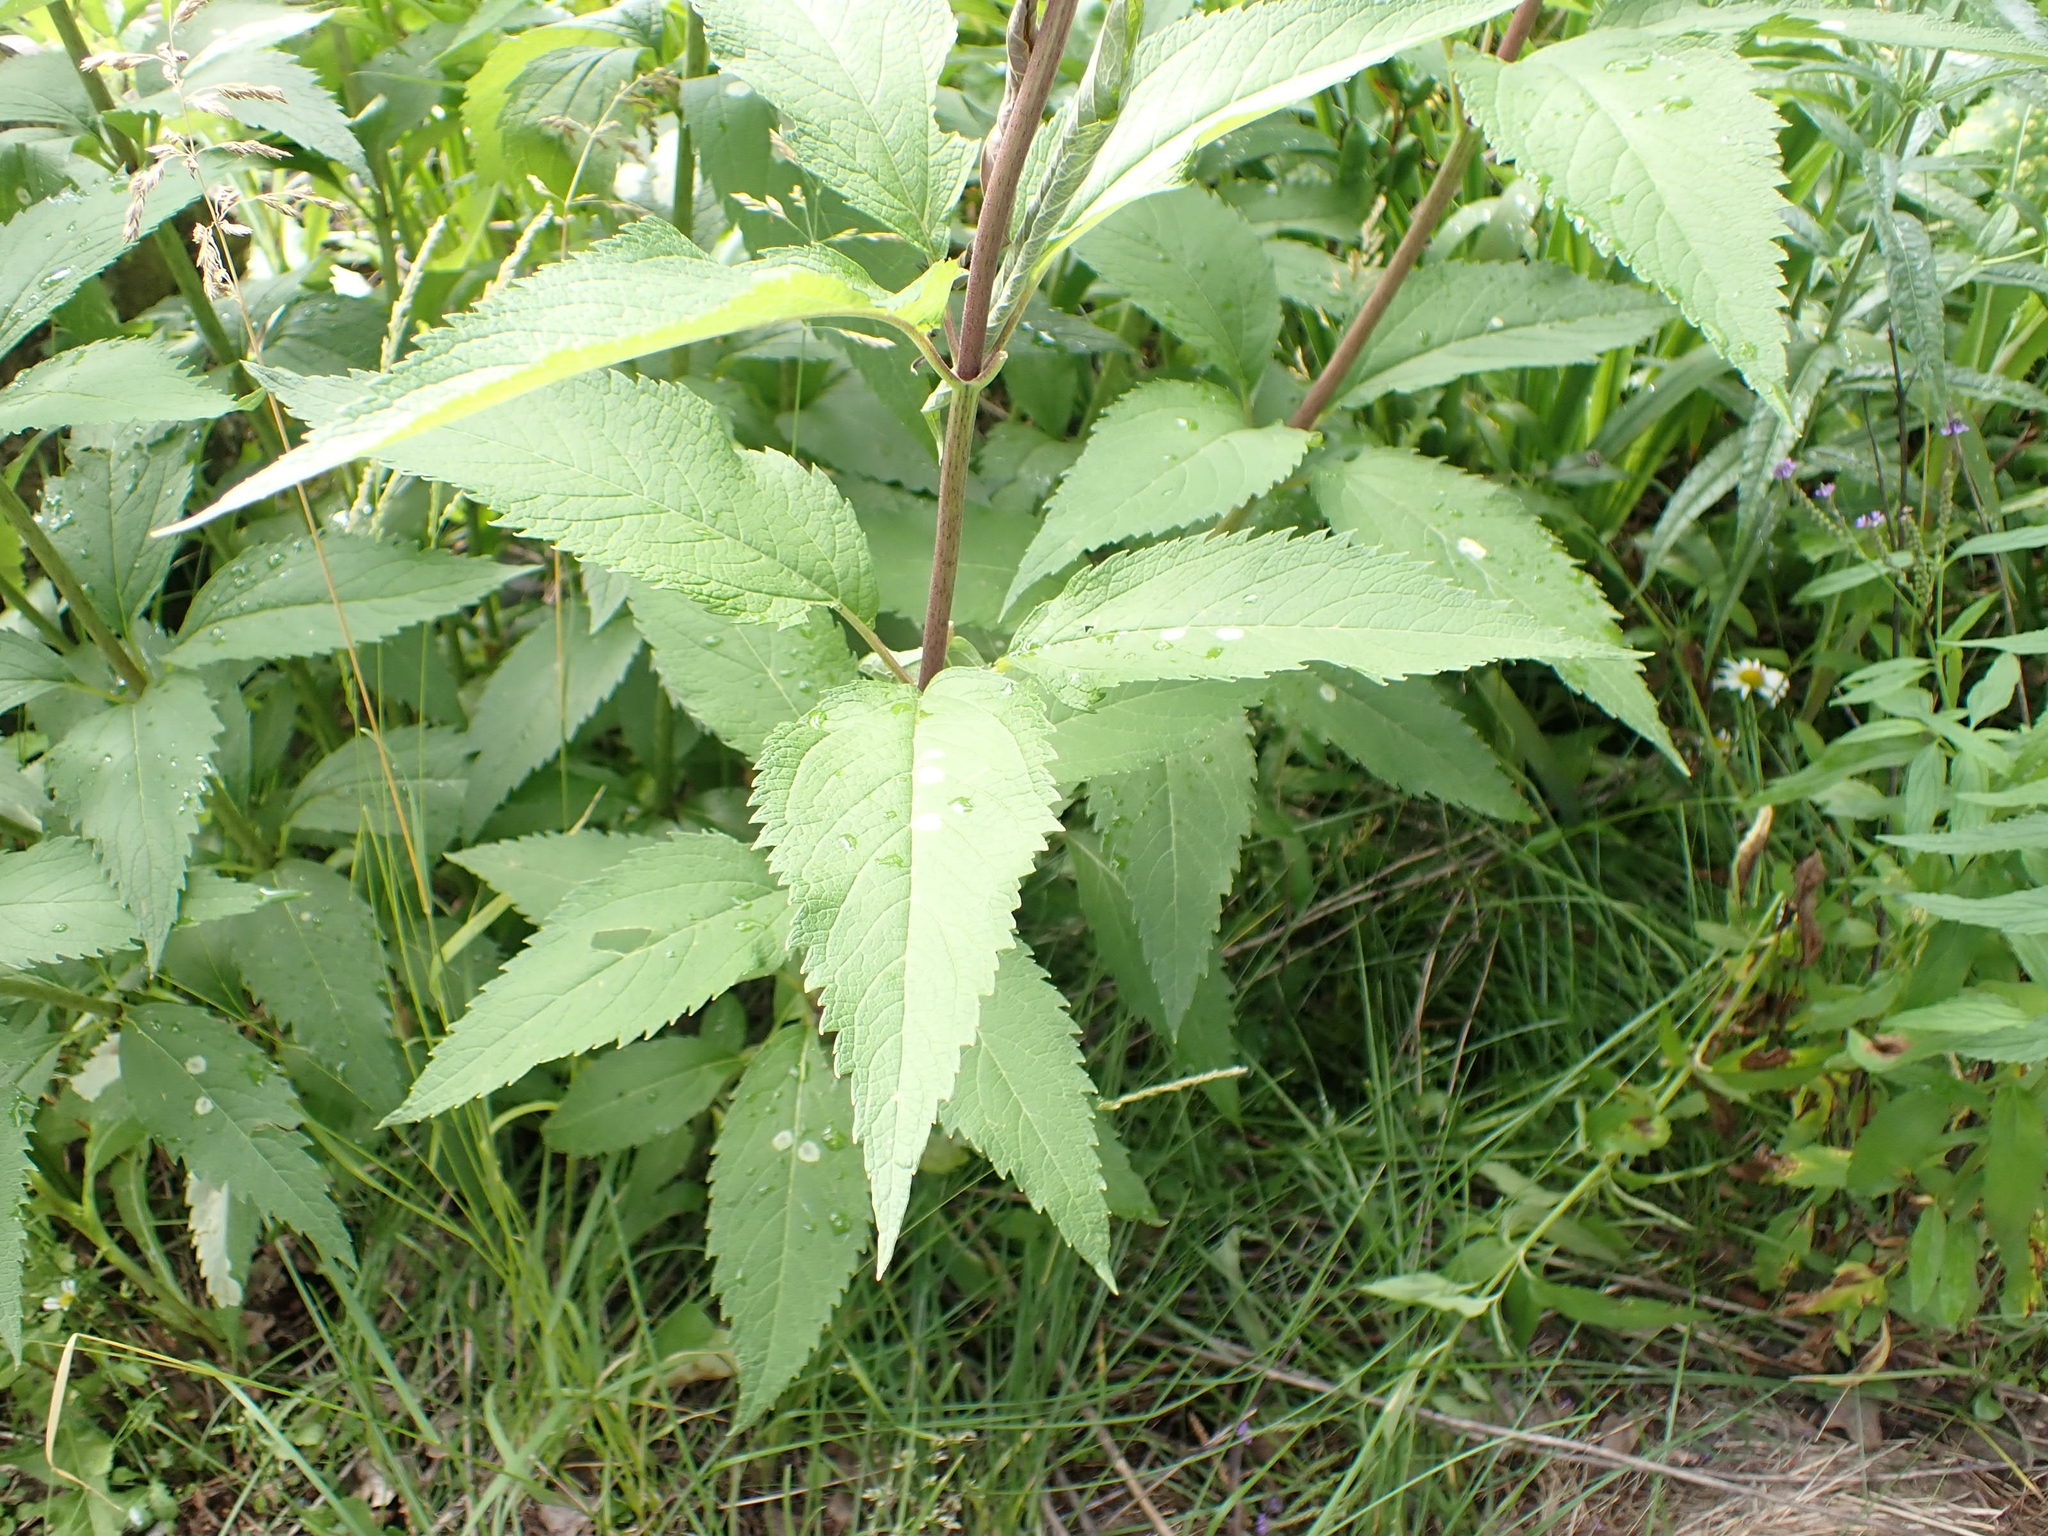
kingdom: Animalia
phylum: Arthropoda
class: Insecta
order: Diptera
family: Agromyzidae
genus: Calycomyza
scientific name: Calycomyza flavinotum
